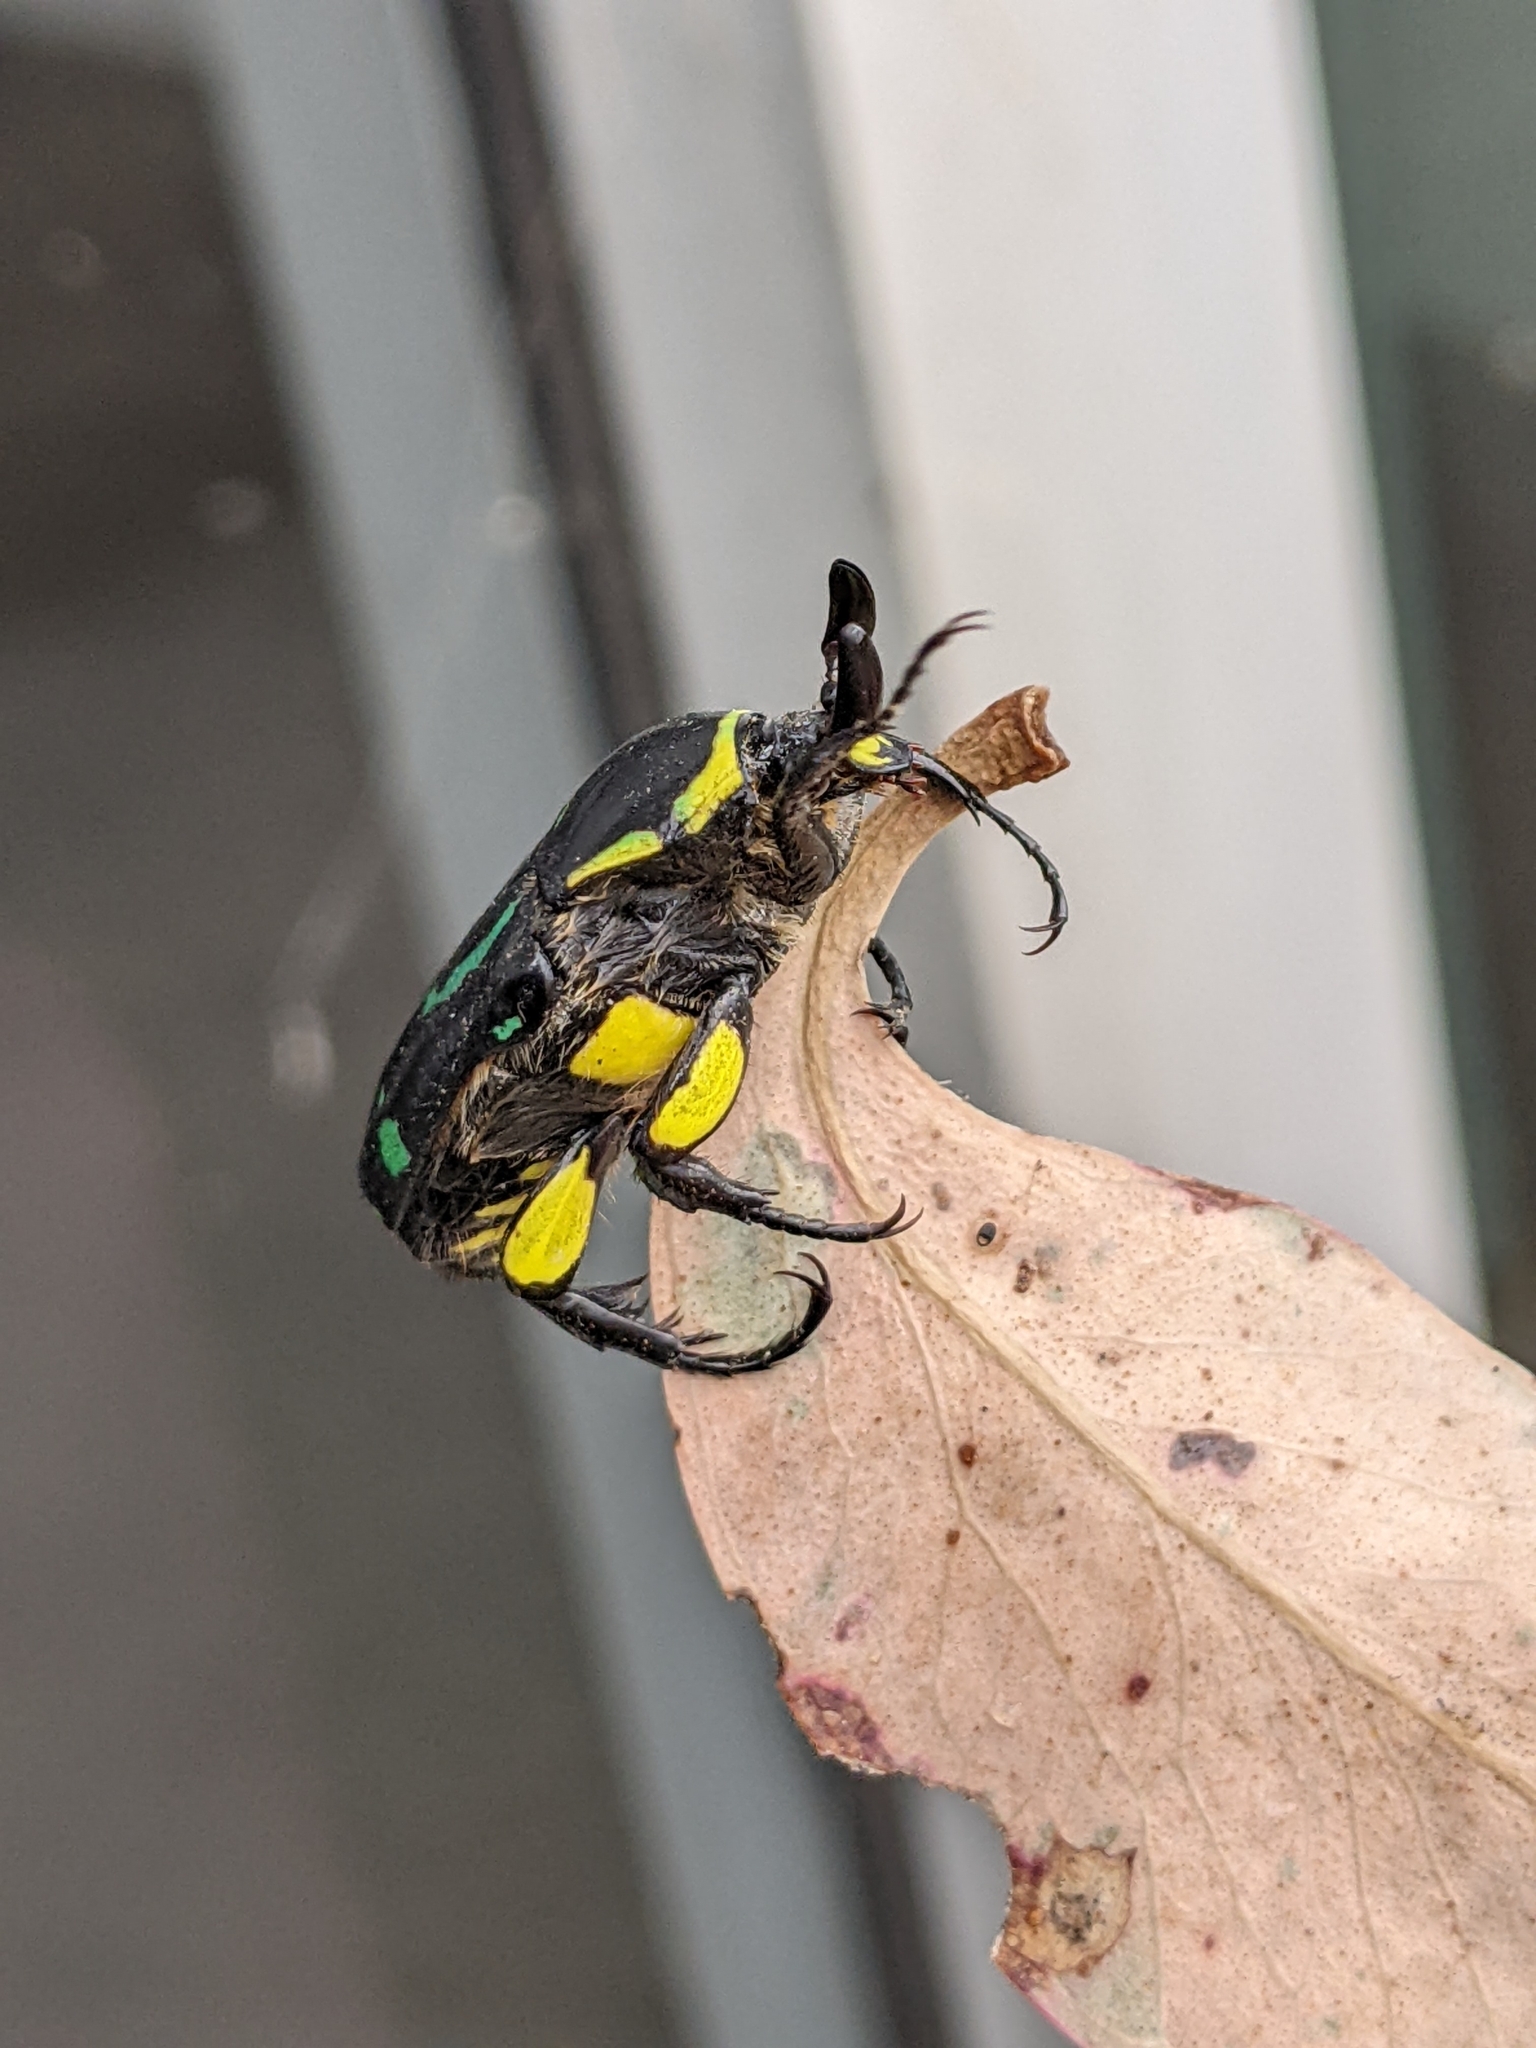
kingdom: Animalia
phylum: Arthropoda
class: Insecta
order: Coleoptera
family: Scarabaeidae
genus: Chlorobapta
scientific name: Chlorobapta frontalis
